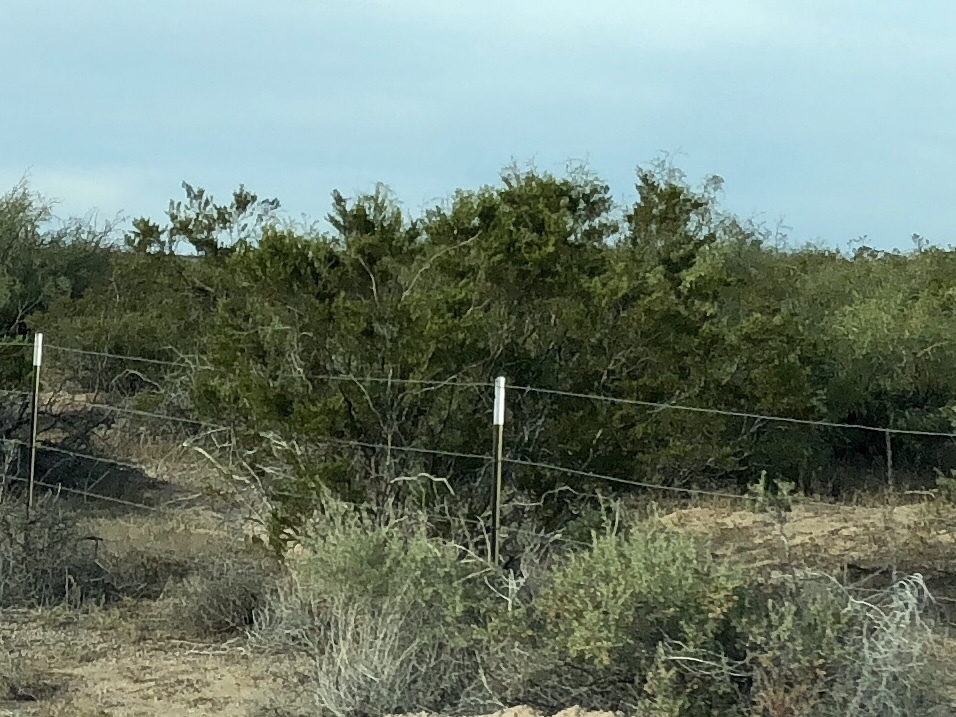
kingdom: Plantae
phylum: Tracheophyta
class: Magnoliopsida
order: Zygophyllales
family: Zygophyllaceae
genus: Larrea
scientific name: Larrea tridentata
